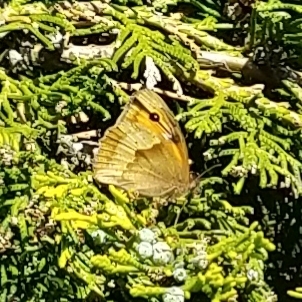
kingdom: Animalia
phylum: Arthropoda
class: Insecta
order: Lepidoptera
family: Nymphalidae
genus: Maniola
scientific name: Maniola jurtina
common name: Meadow brown
